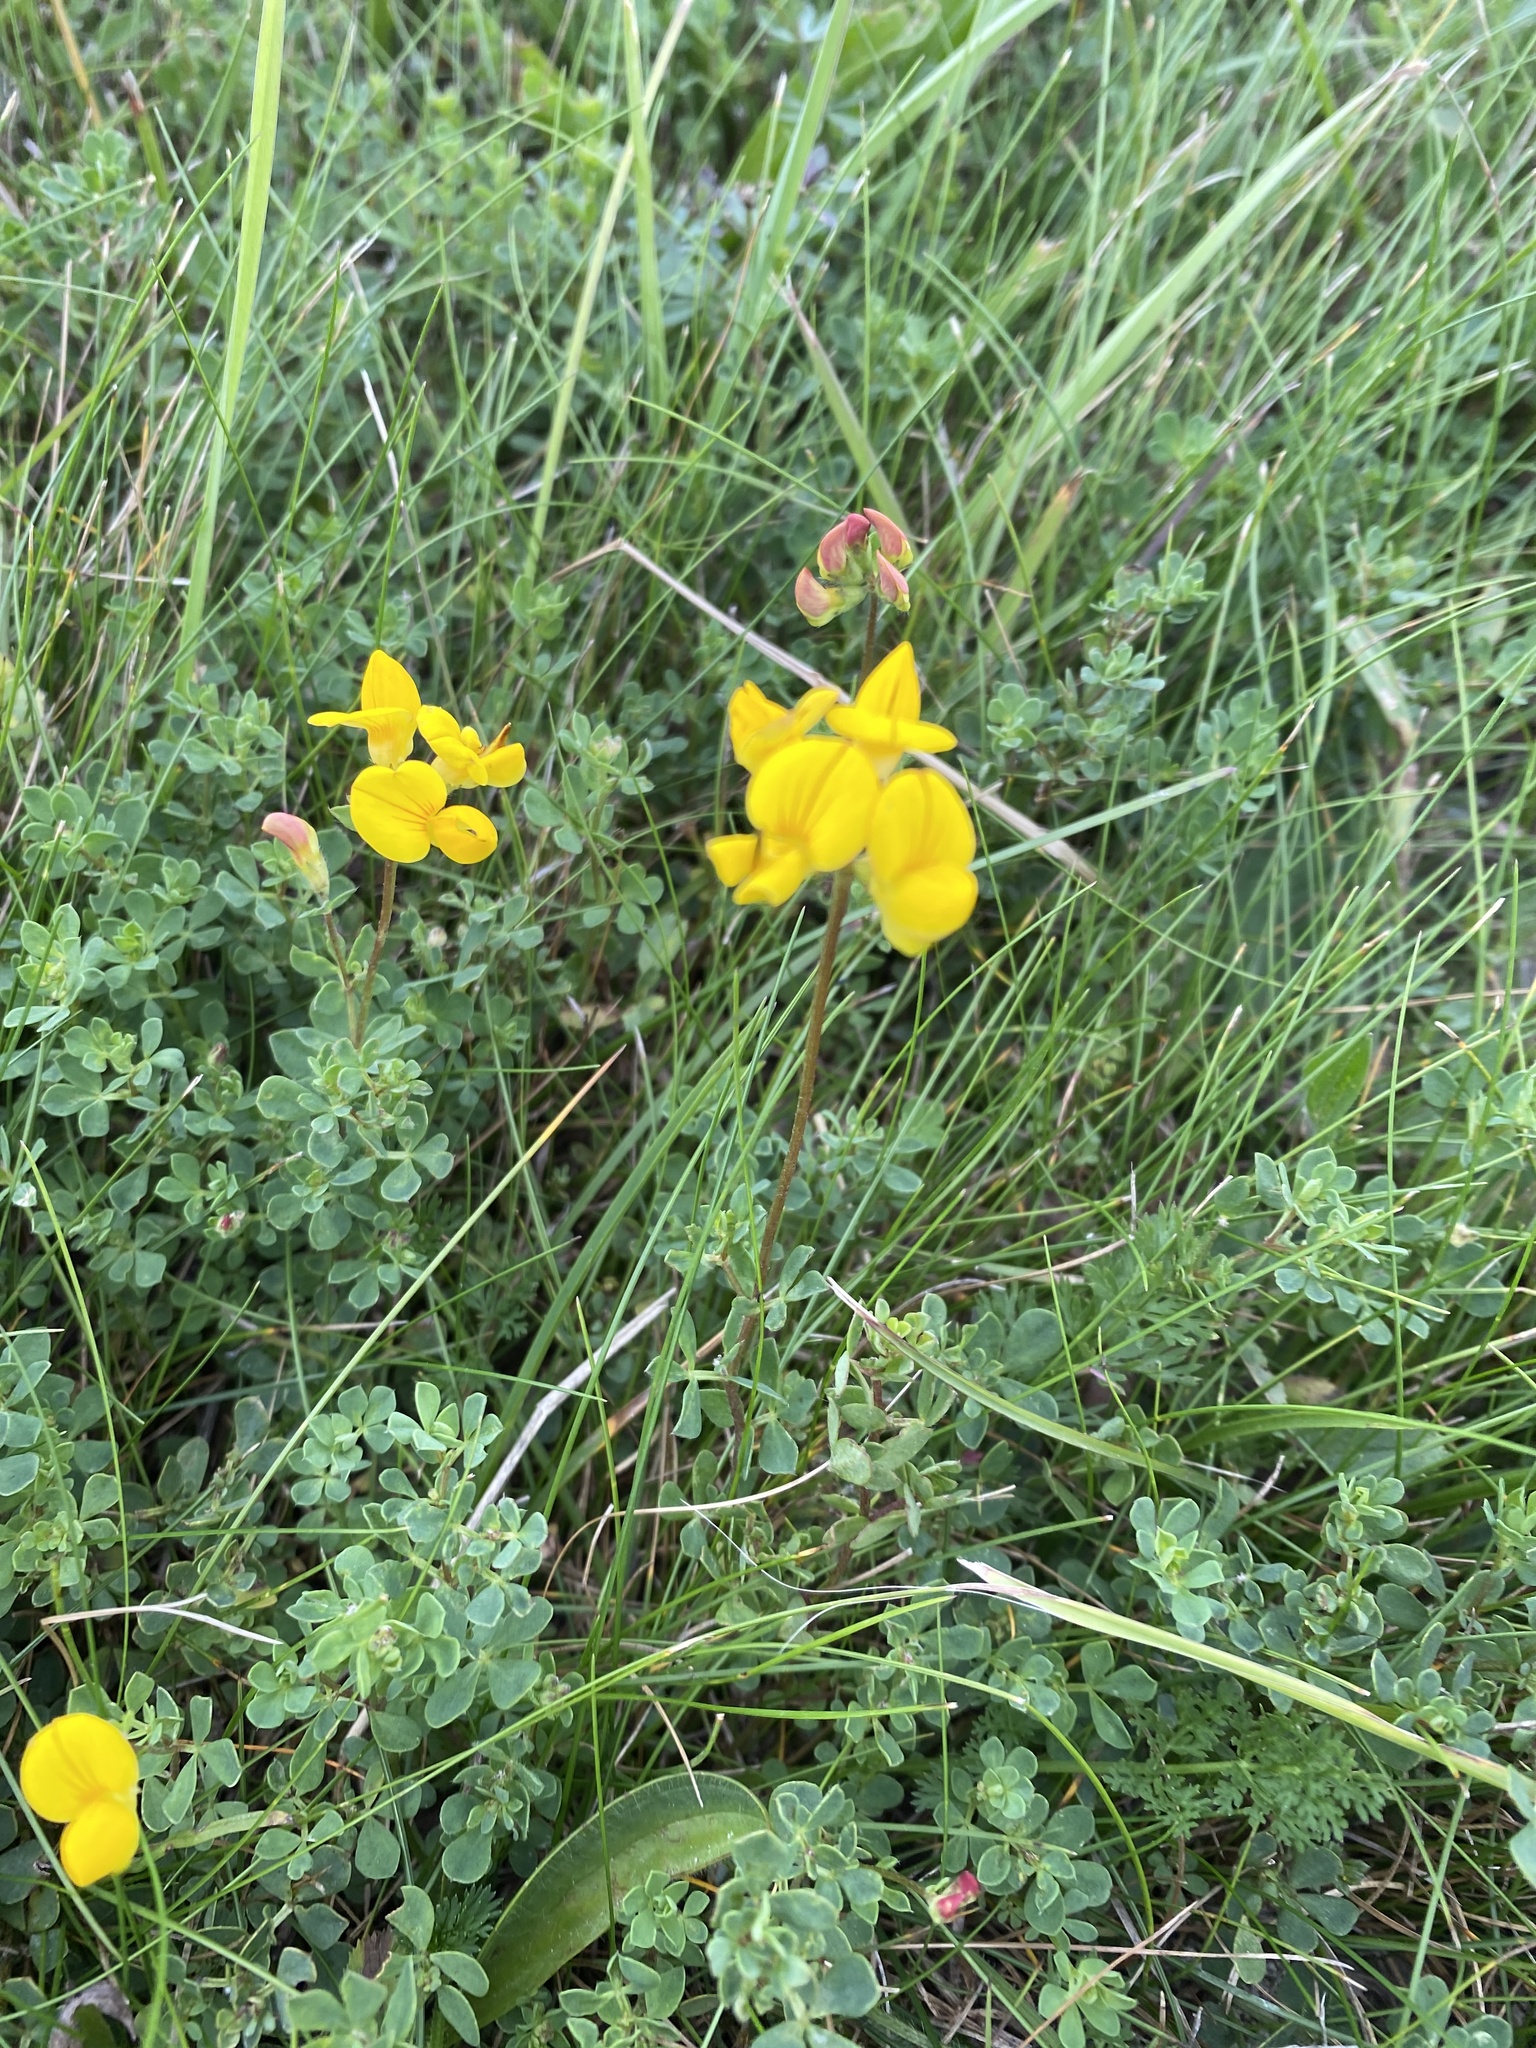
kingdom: Plantae
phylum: Tracheophyta
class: Magnoliopsida
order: Fabales
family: Fabaceae
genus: Lotus
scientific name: Lotus corniculatus
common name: Common bird's-foot-trefoil
